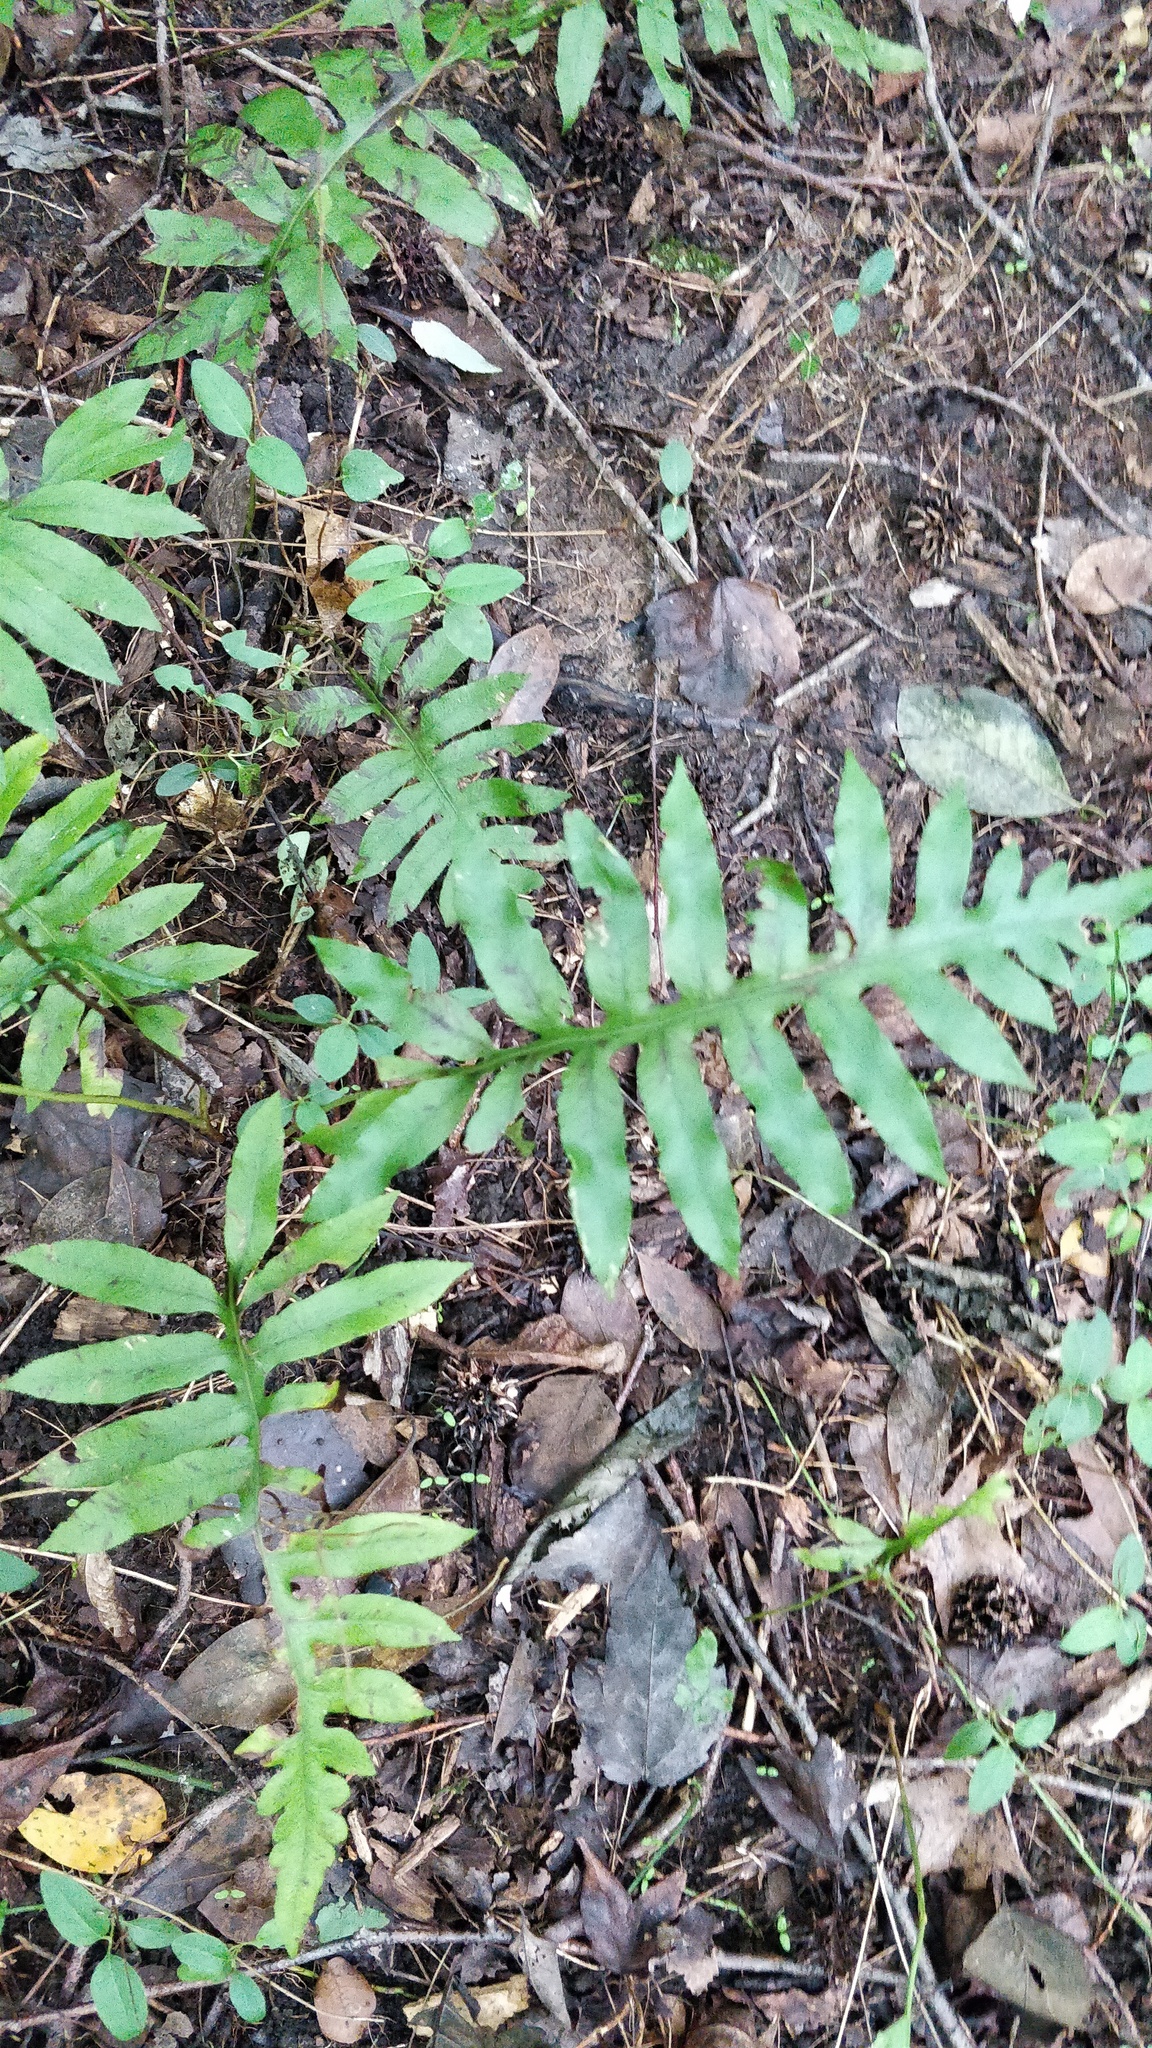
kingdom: Plantae
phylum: Tracheophyta
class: Polypodiopsida
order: Polypodiales
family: Blechnaceae
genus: Lorinseria
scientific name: Lorinseria areolata
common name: Dwarf chain fern
